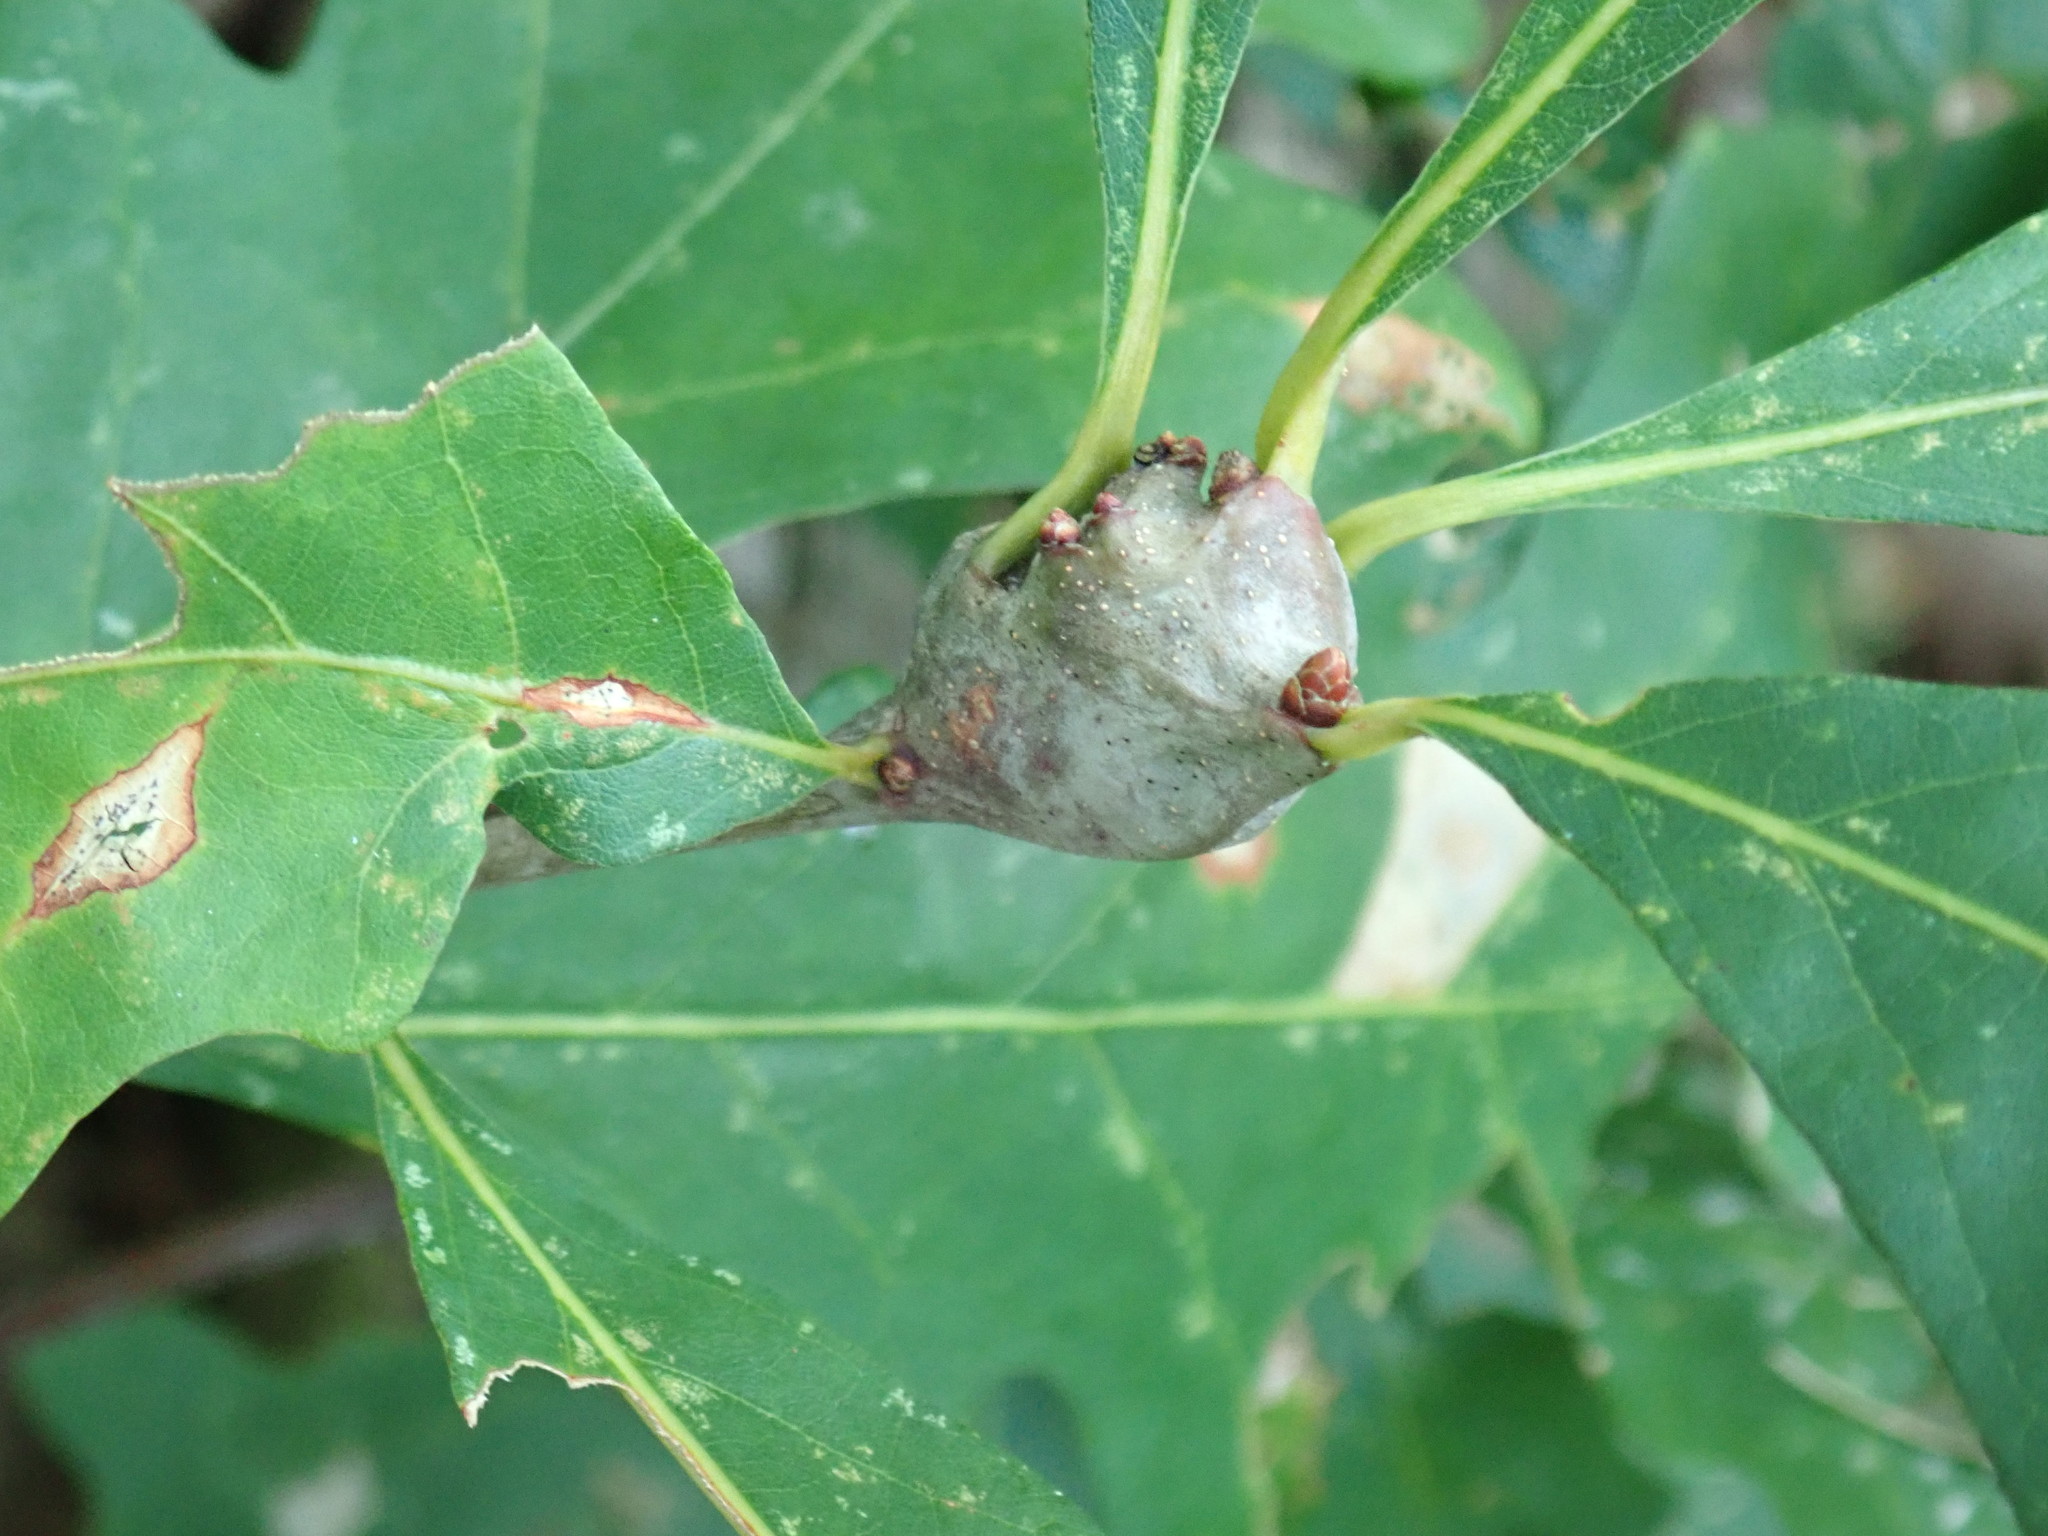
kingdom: Animalia
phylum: Arthropoda
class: Insecta
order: Hymenoptera
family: Cynipidae
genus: Callirhytis
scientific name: Callirhytis clavula
